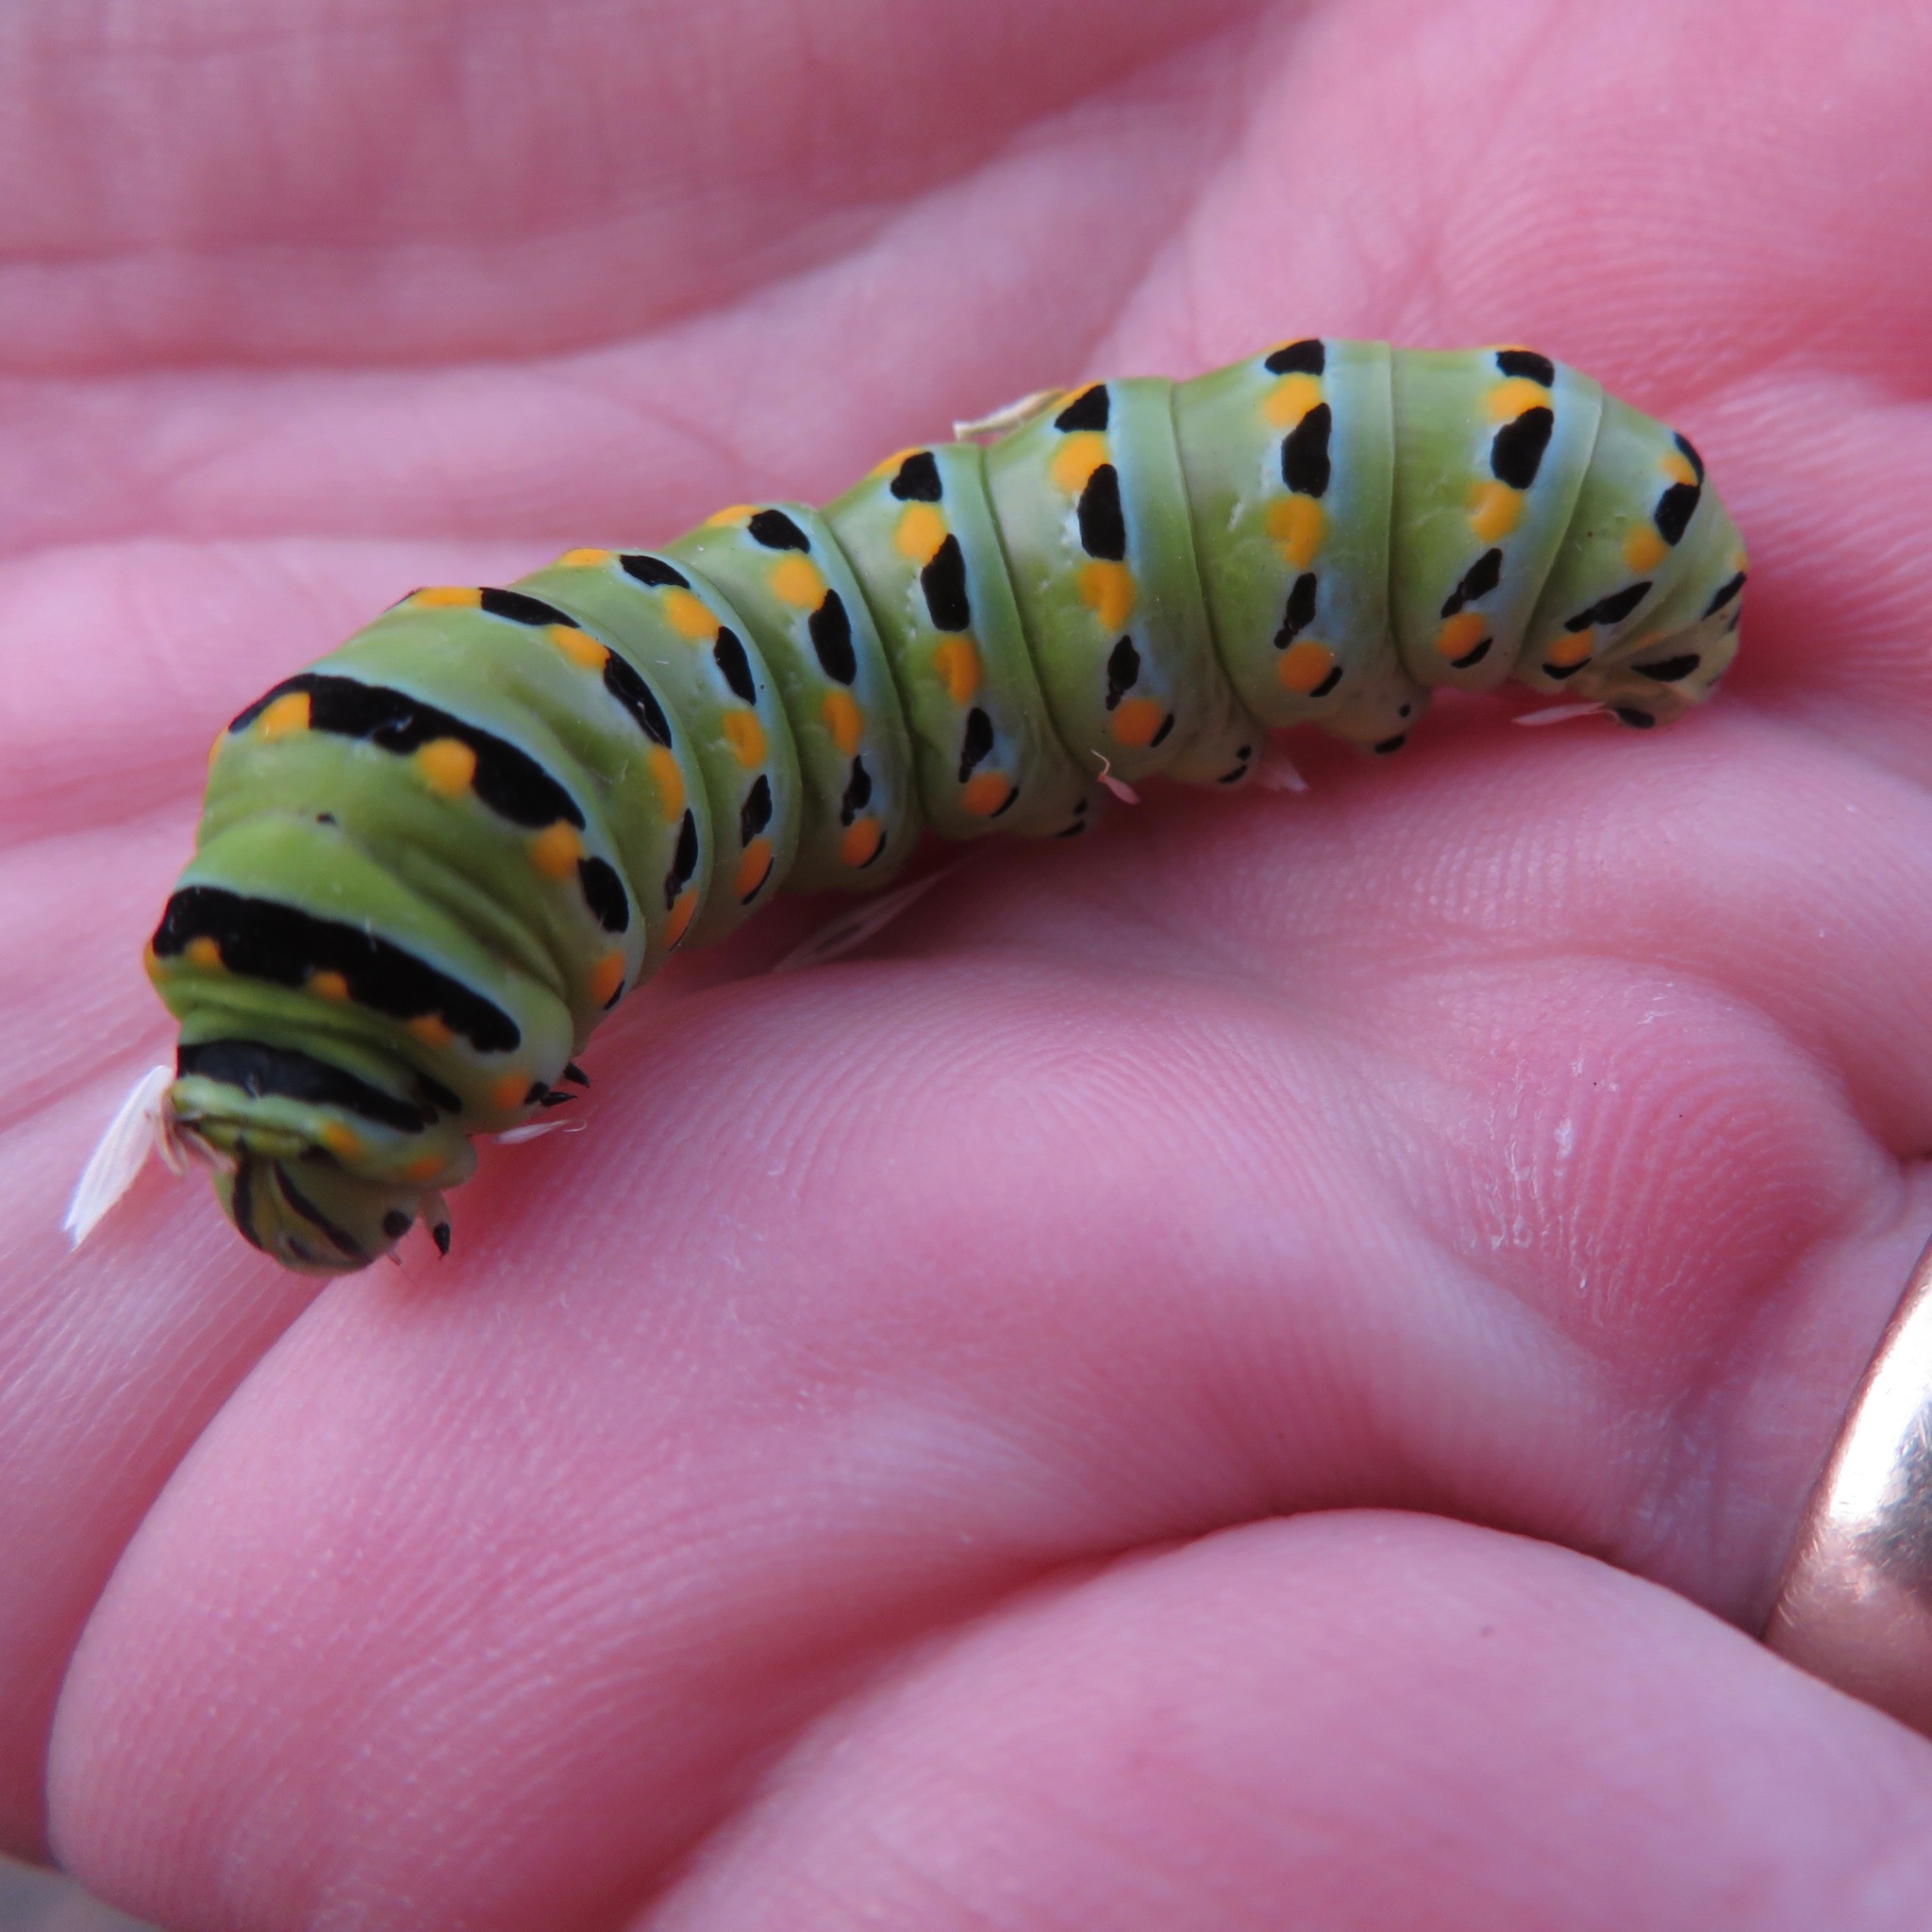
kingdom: Animalia
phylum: Arthropoda
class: Insecta
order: Lepidoptera
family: Papilionidae
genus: Papilio
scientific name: Papilio zelicaon
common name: Anise swallowtail
